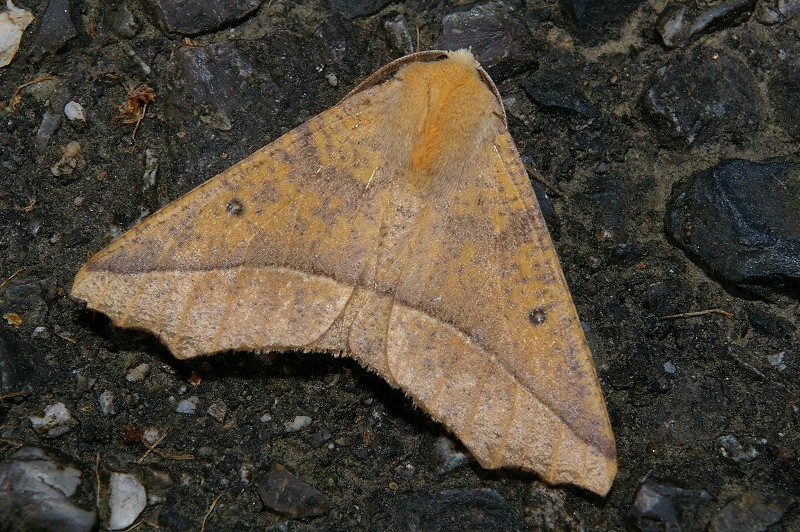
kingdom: Animalia
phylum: Arthropoda
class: Insecta
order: Lepidoptera
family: Geometridae
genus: Odontopera
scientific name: Odontopera arida
